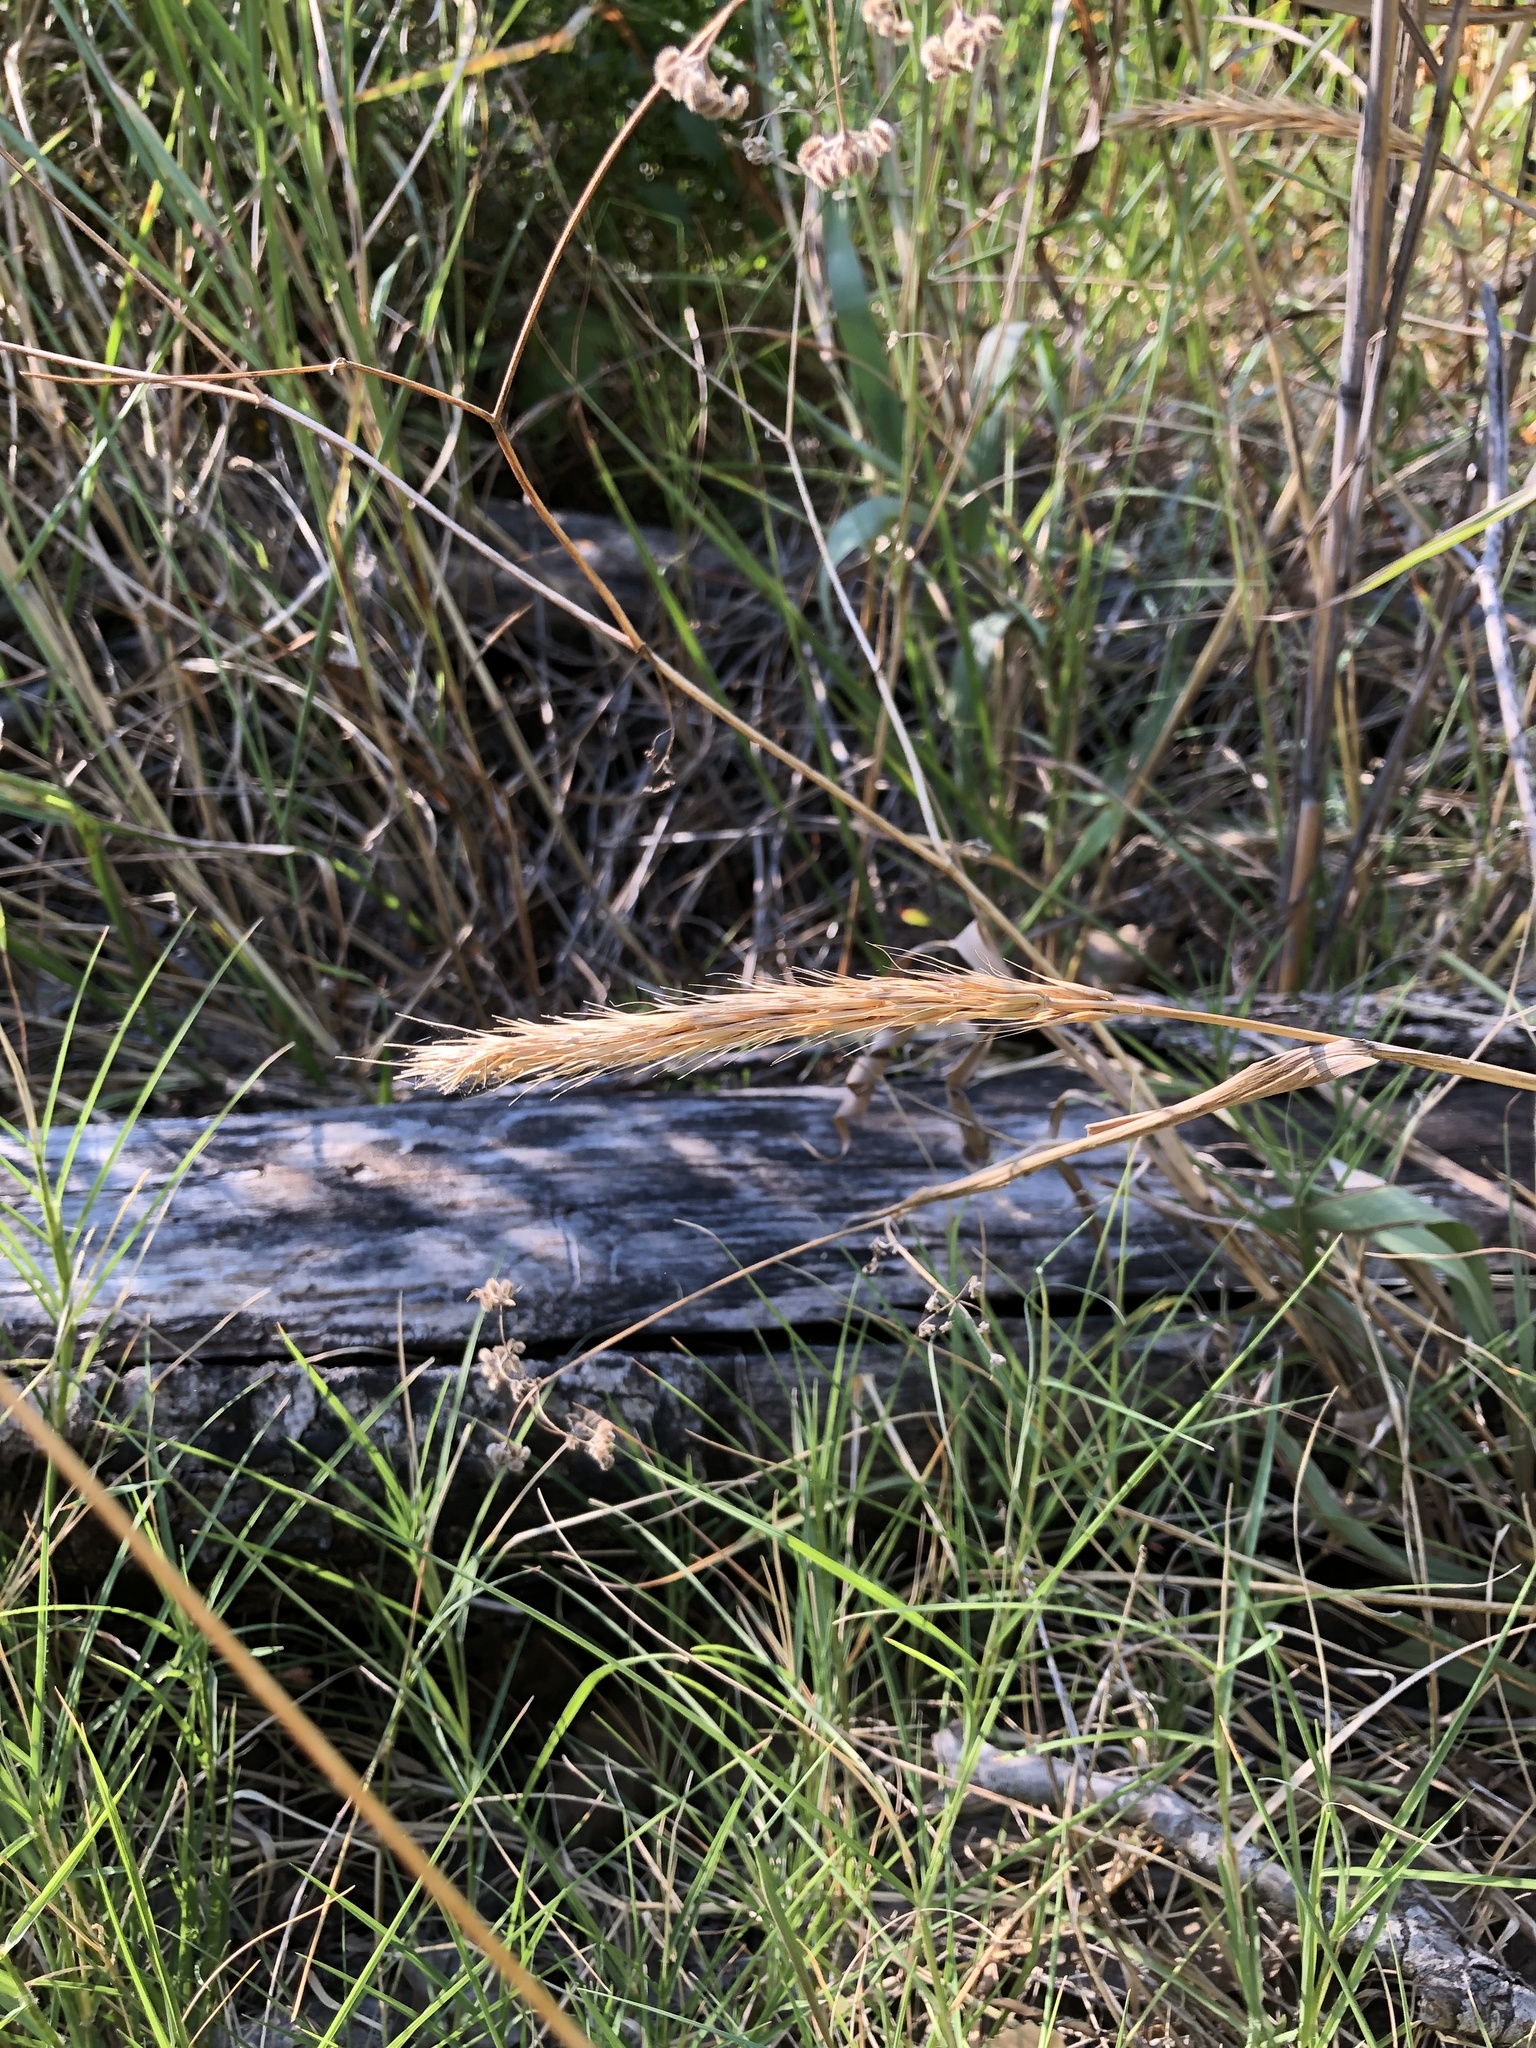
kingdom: Plantae
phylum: Tracheophyta
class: Liliopsida
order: Poales
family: Poaceae
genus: Elymus
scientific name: Elymus virginicus
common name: Common eastern wildrye
